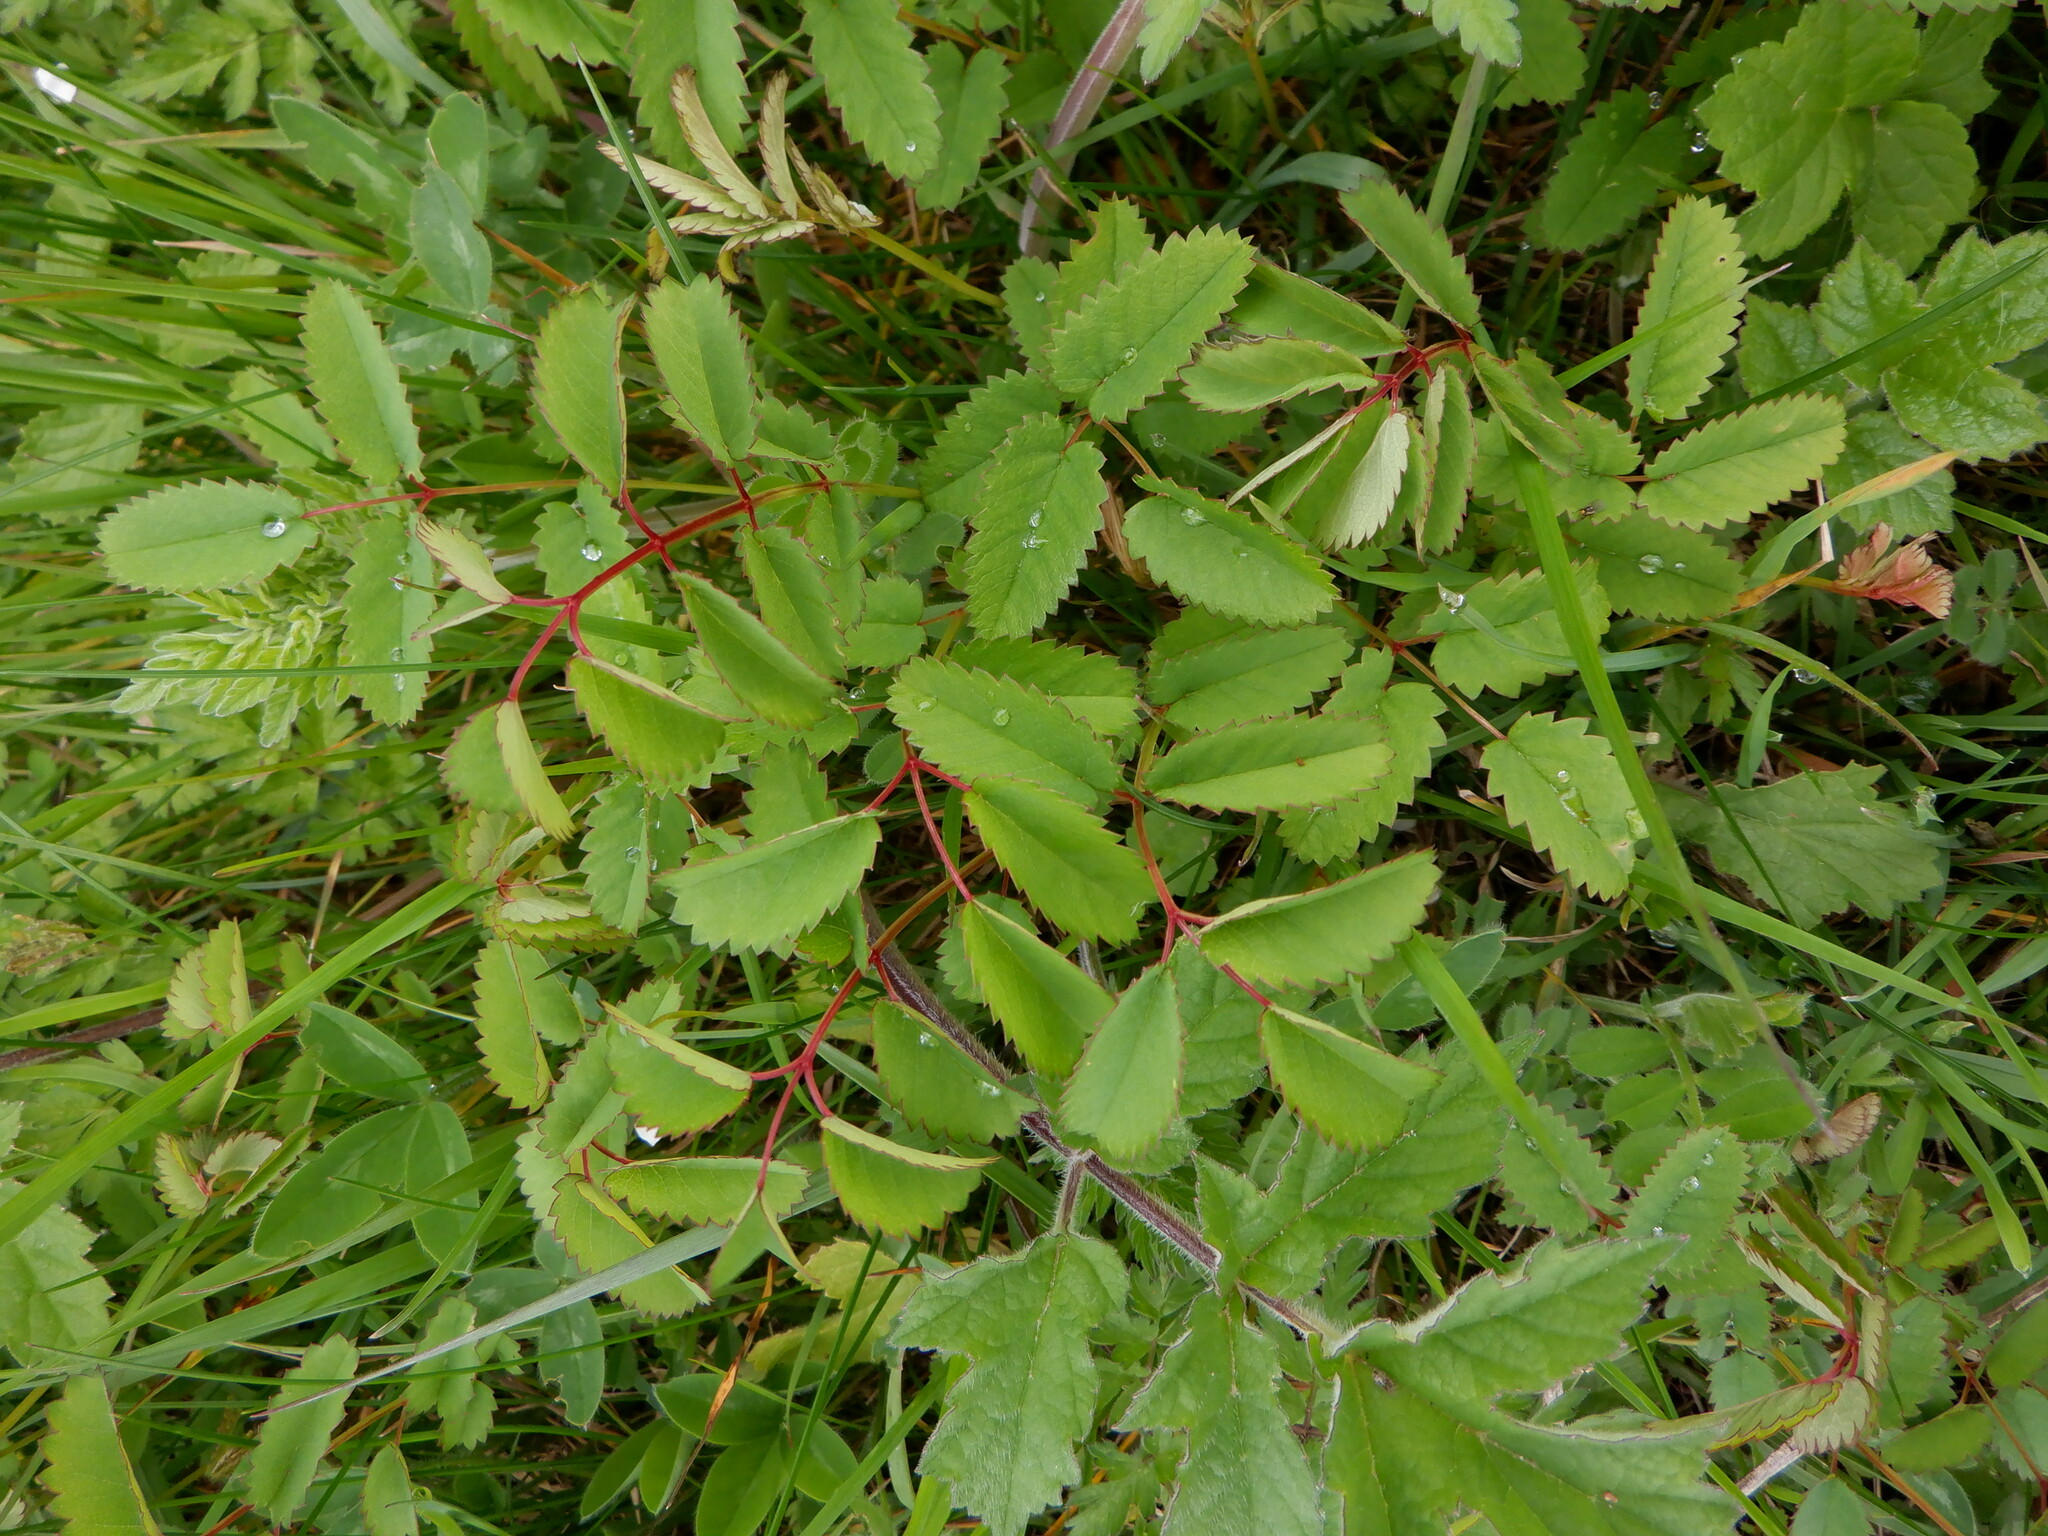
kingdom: Plantae
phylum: Tracheophyta
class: Magnoliopsida
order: Rosales
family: Rosaceae
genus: Poterium
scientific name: Poterium sanguisorba
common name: Salad burnet
